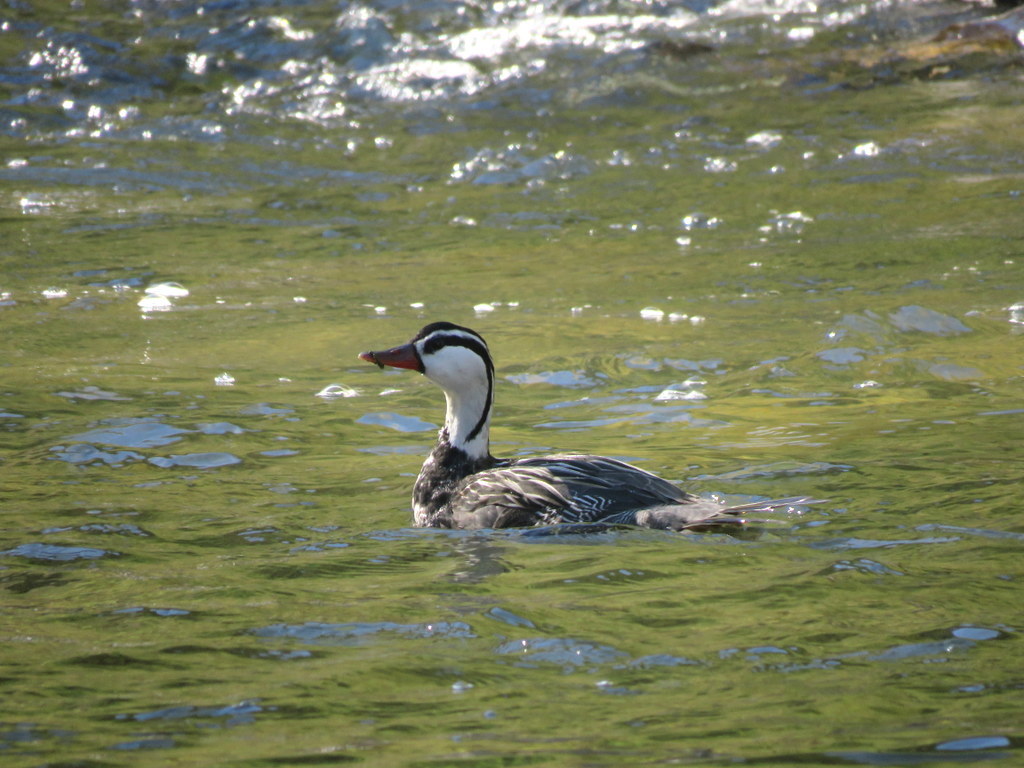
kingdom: Animalia
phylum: Chordata
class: Aves
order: Anseriformes
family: Anatidae
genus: Merganetta
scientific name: Merganetta armata
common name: Torrent duck
